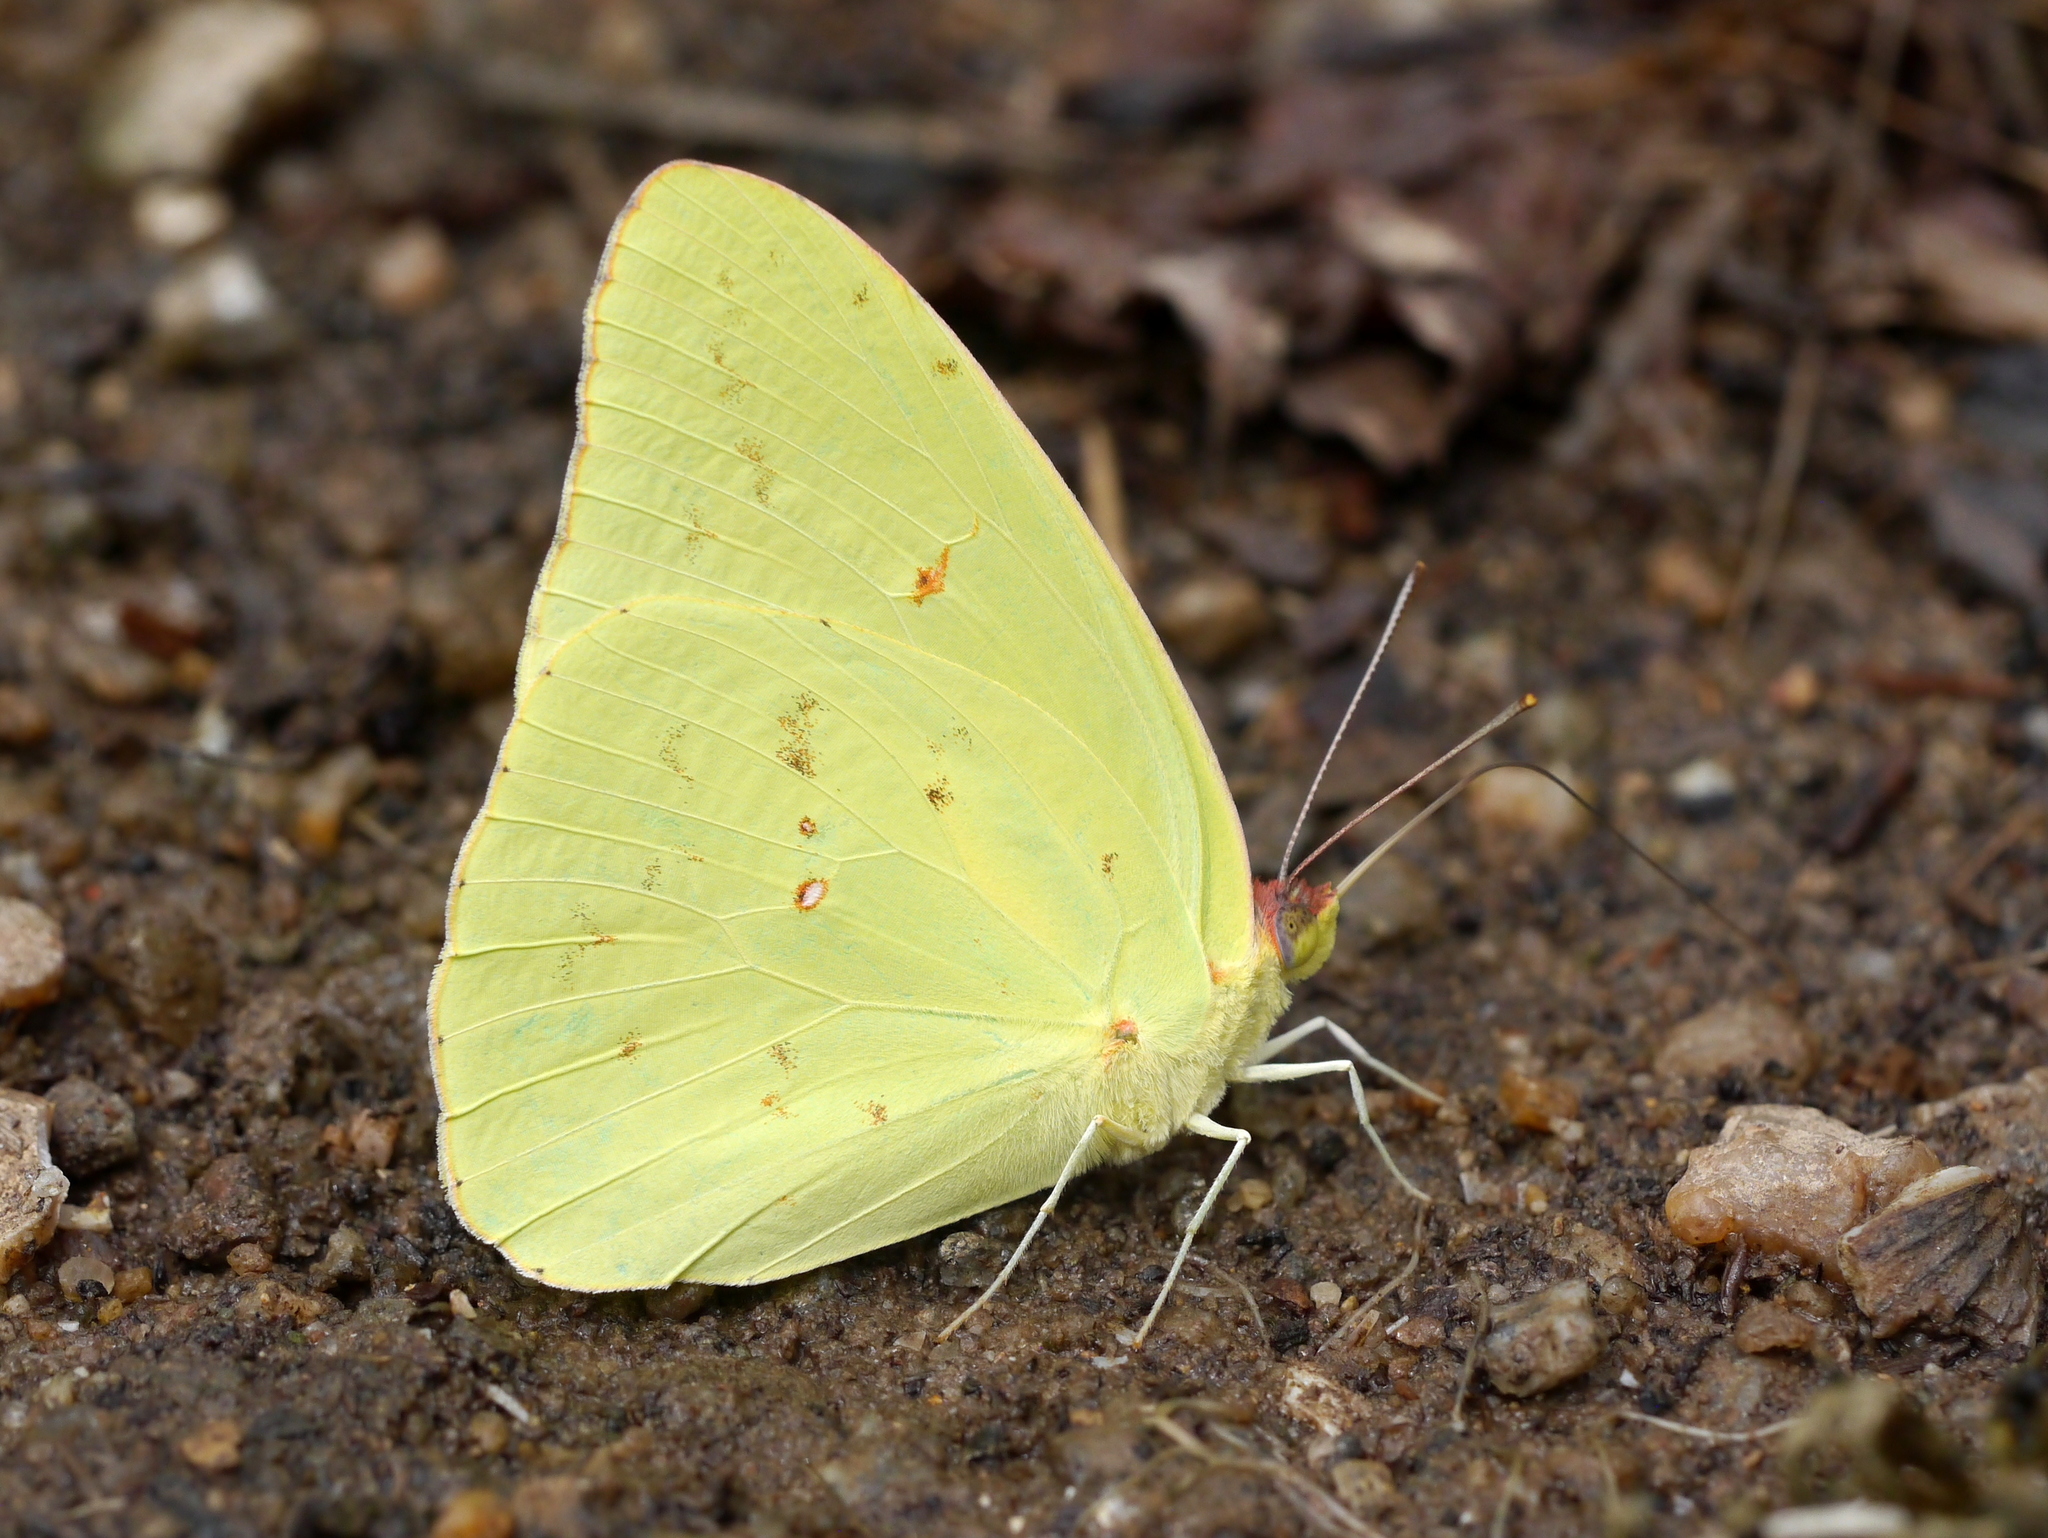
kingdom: Animalia
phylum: Arthropoda
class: Insecta
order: Lepidoptera
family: Pieridae
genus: Phoebis
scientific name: Phoebis sennae
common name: Cloudless sulphur
